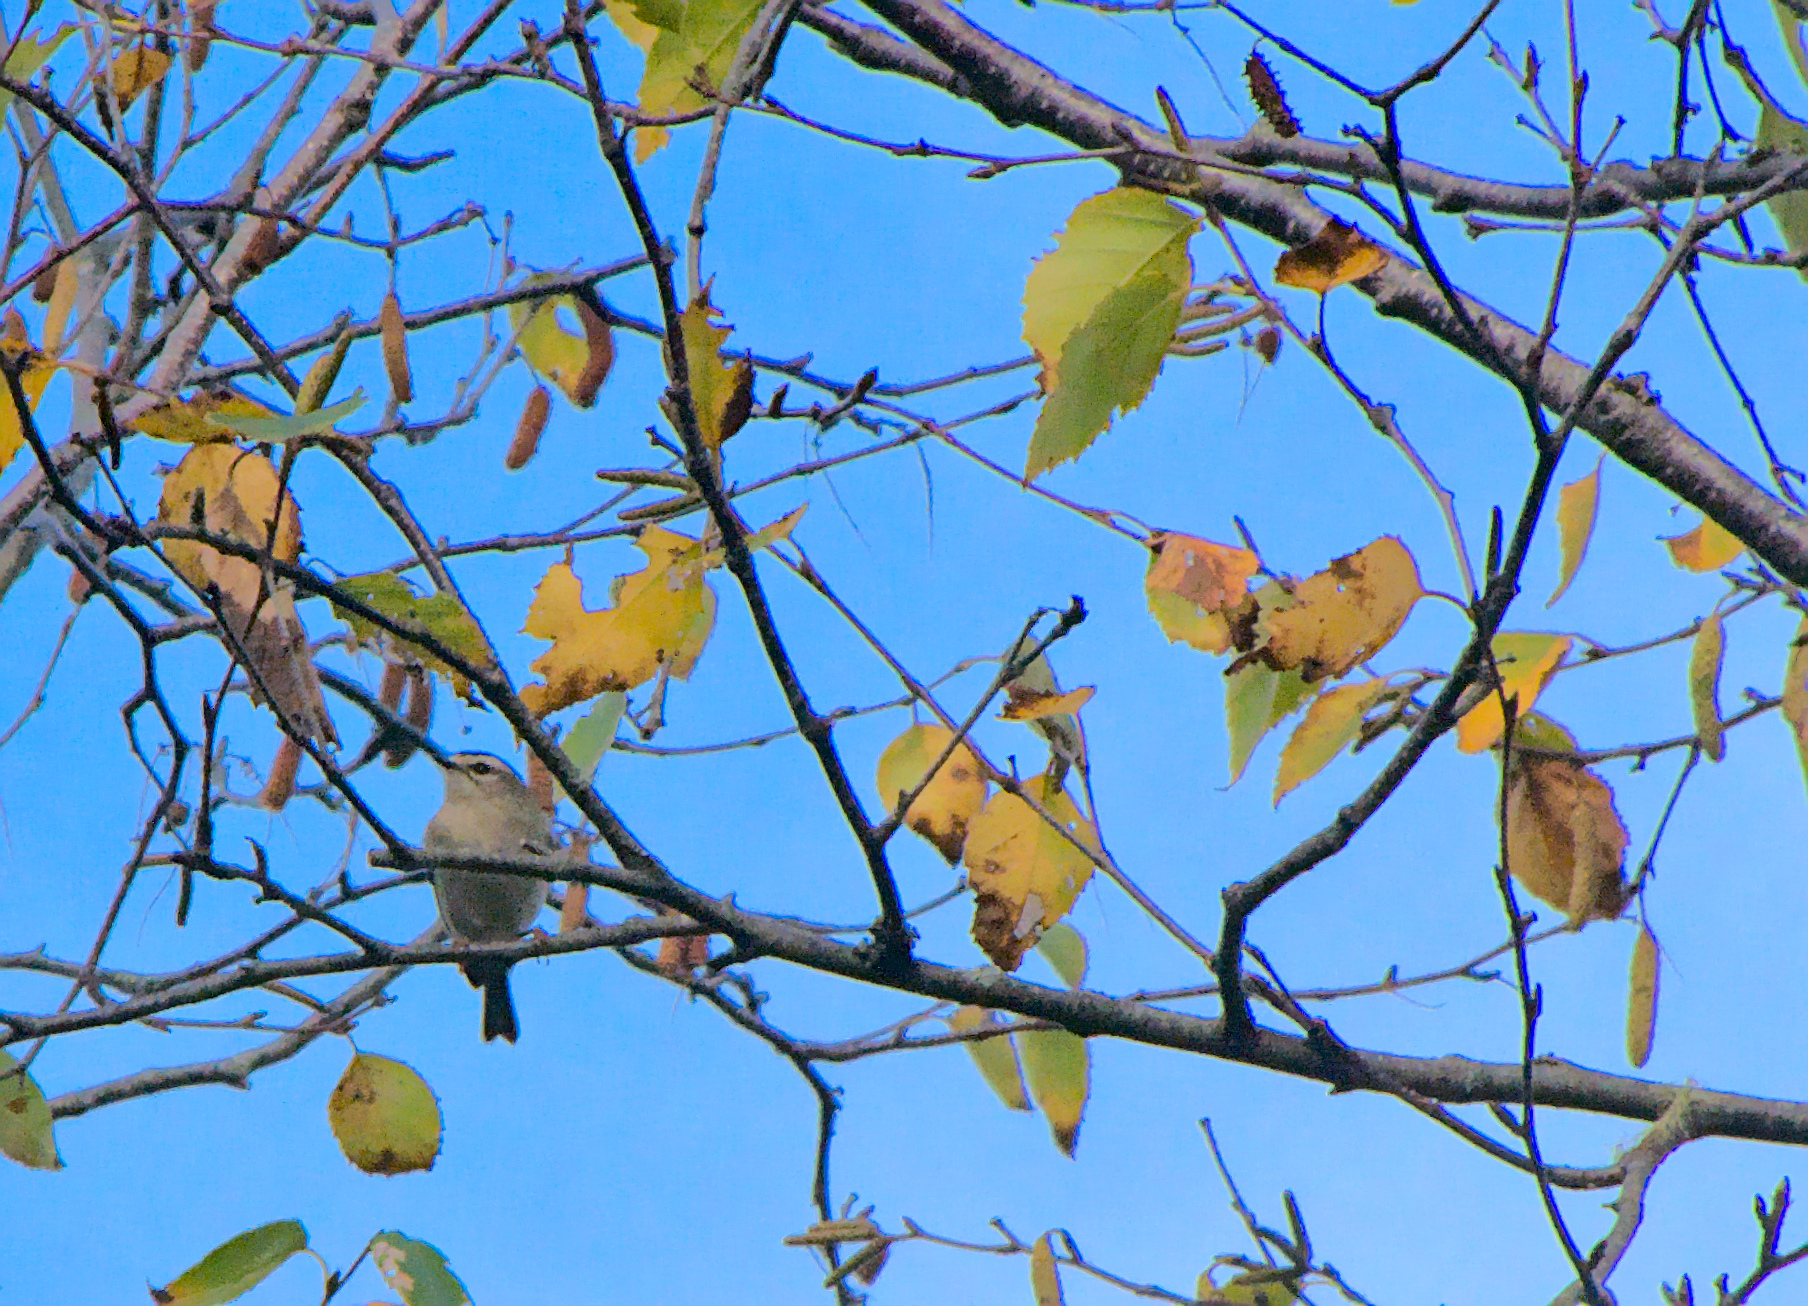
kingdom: Animalia
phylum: Chordata
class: Aves
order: Passeriformes
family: Regulidae
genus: Regulus
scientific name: Regulus satrapa
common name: Golden-crowned kinglet
